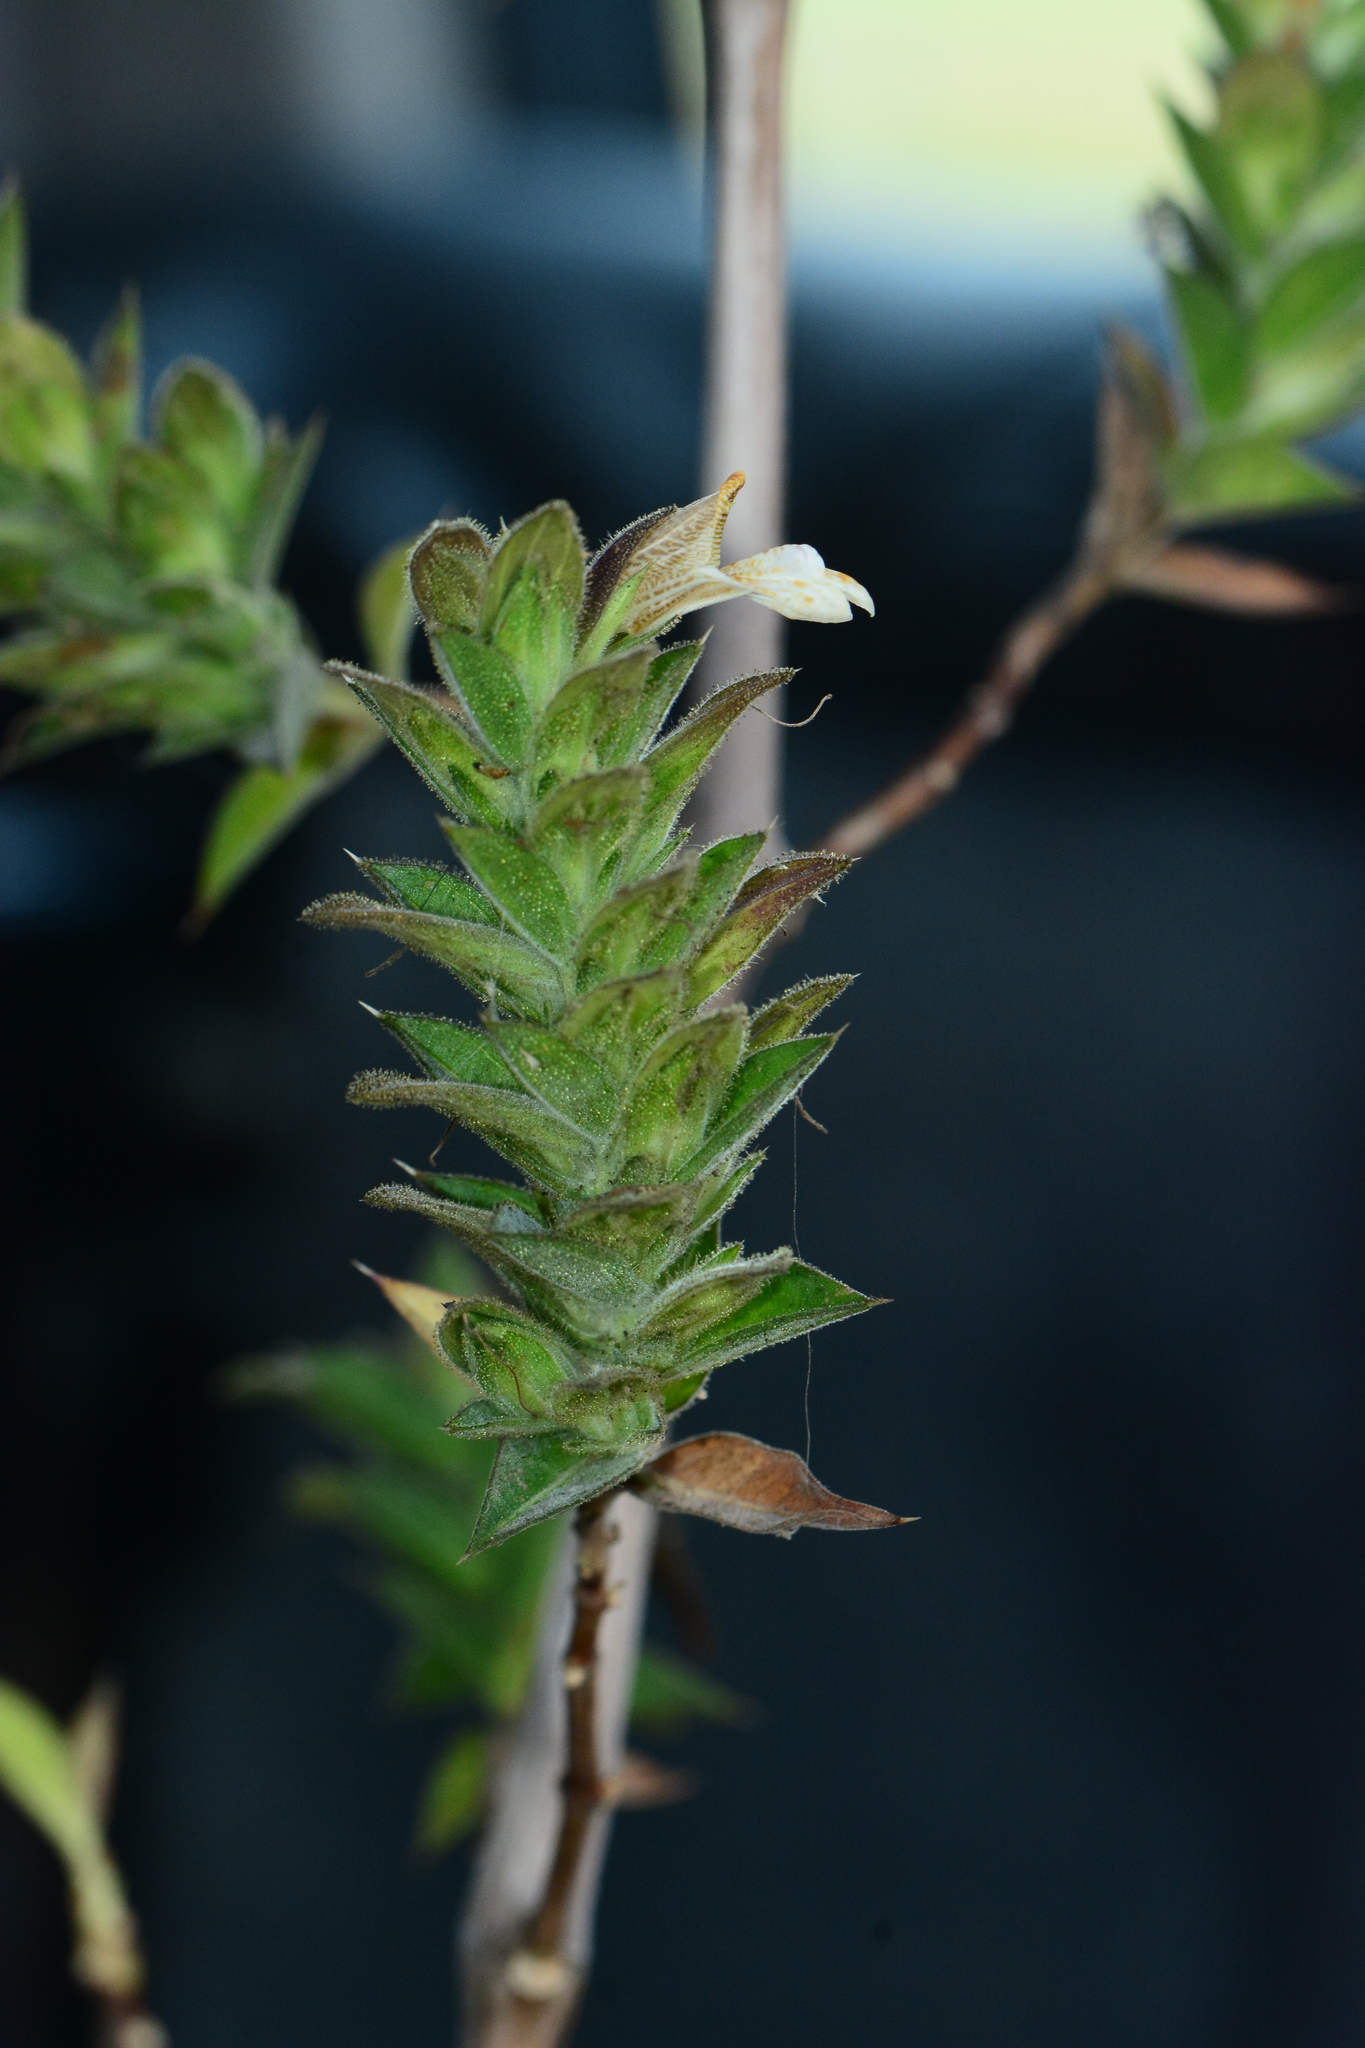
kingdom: Plantae
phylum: Tracheophyta
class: Magnoliopsida
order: Lamiales
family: Acanthaceae
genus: Lepidagathis
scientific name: Lepidagathis cuspidata
